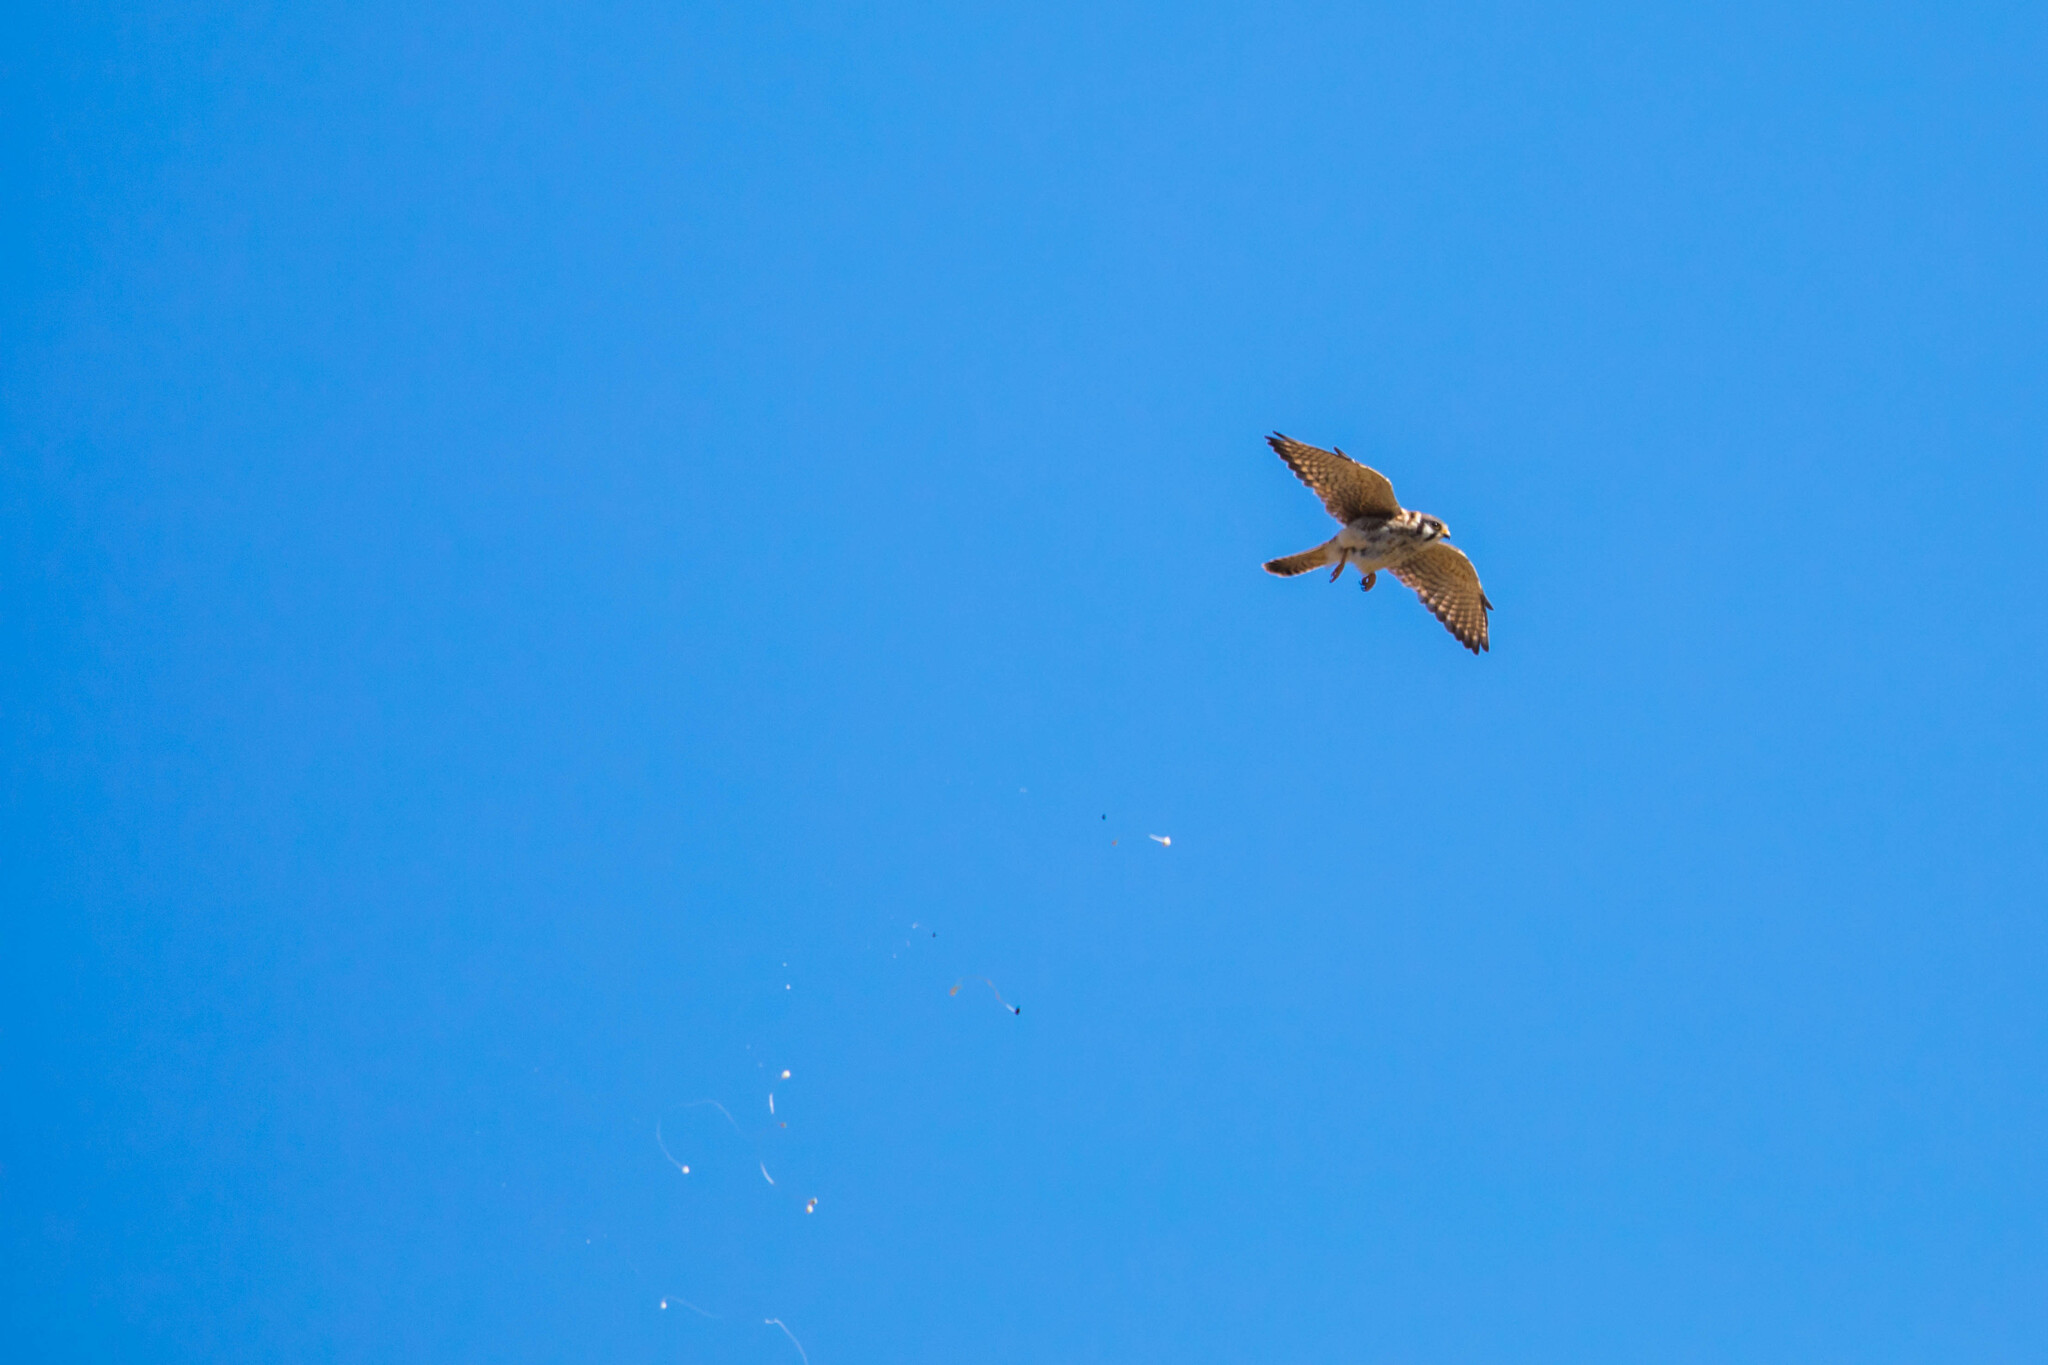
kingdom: Animalia
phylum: Chordata
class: Aves
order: Falconiformes
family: Falconidae
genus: Falco
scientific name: Falco sparverius
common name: American kestrel
